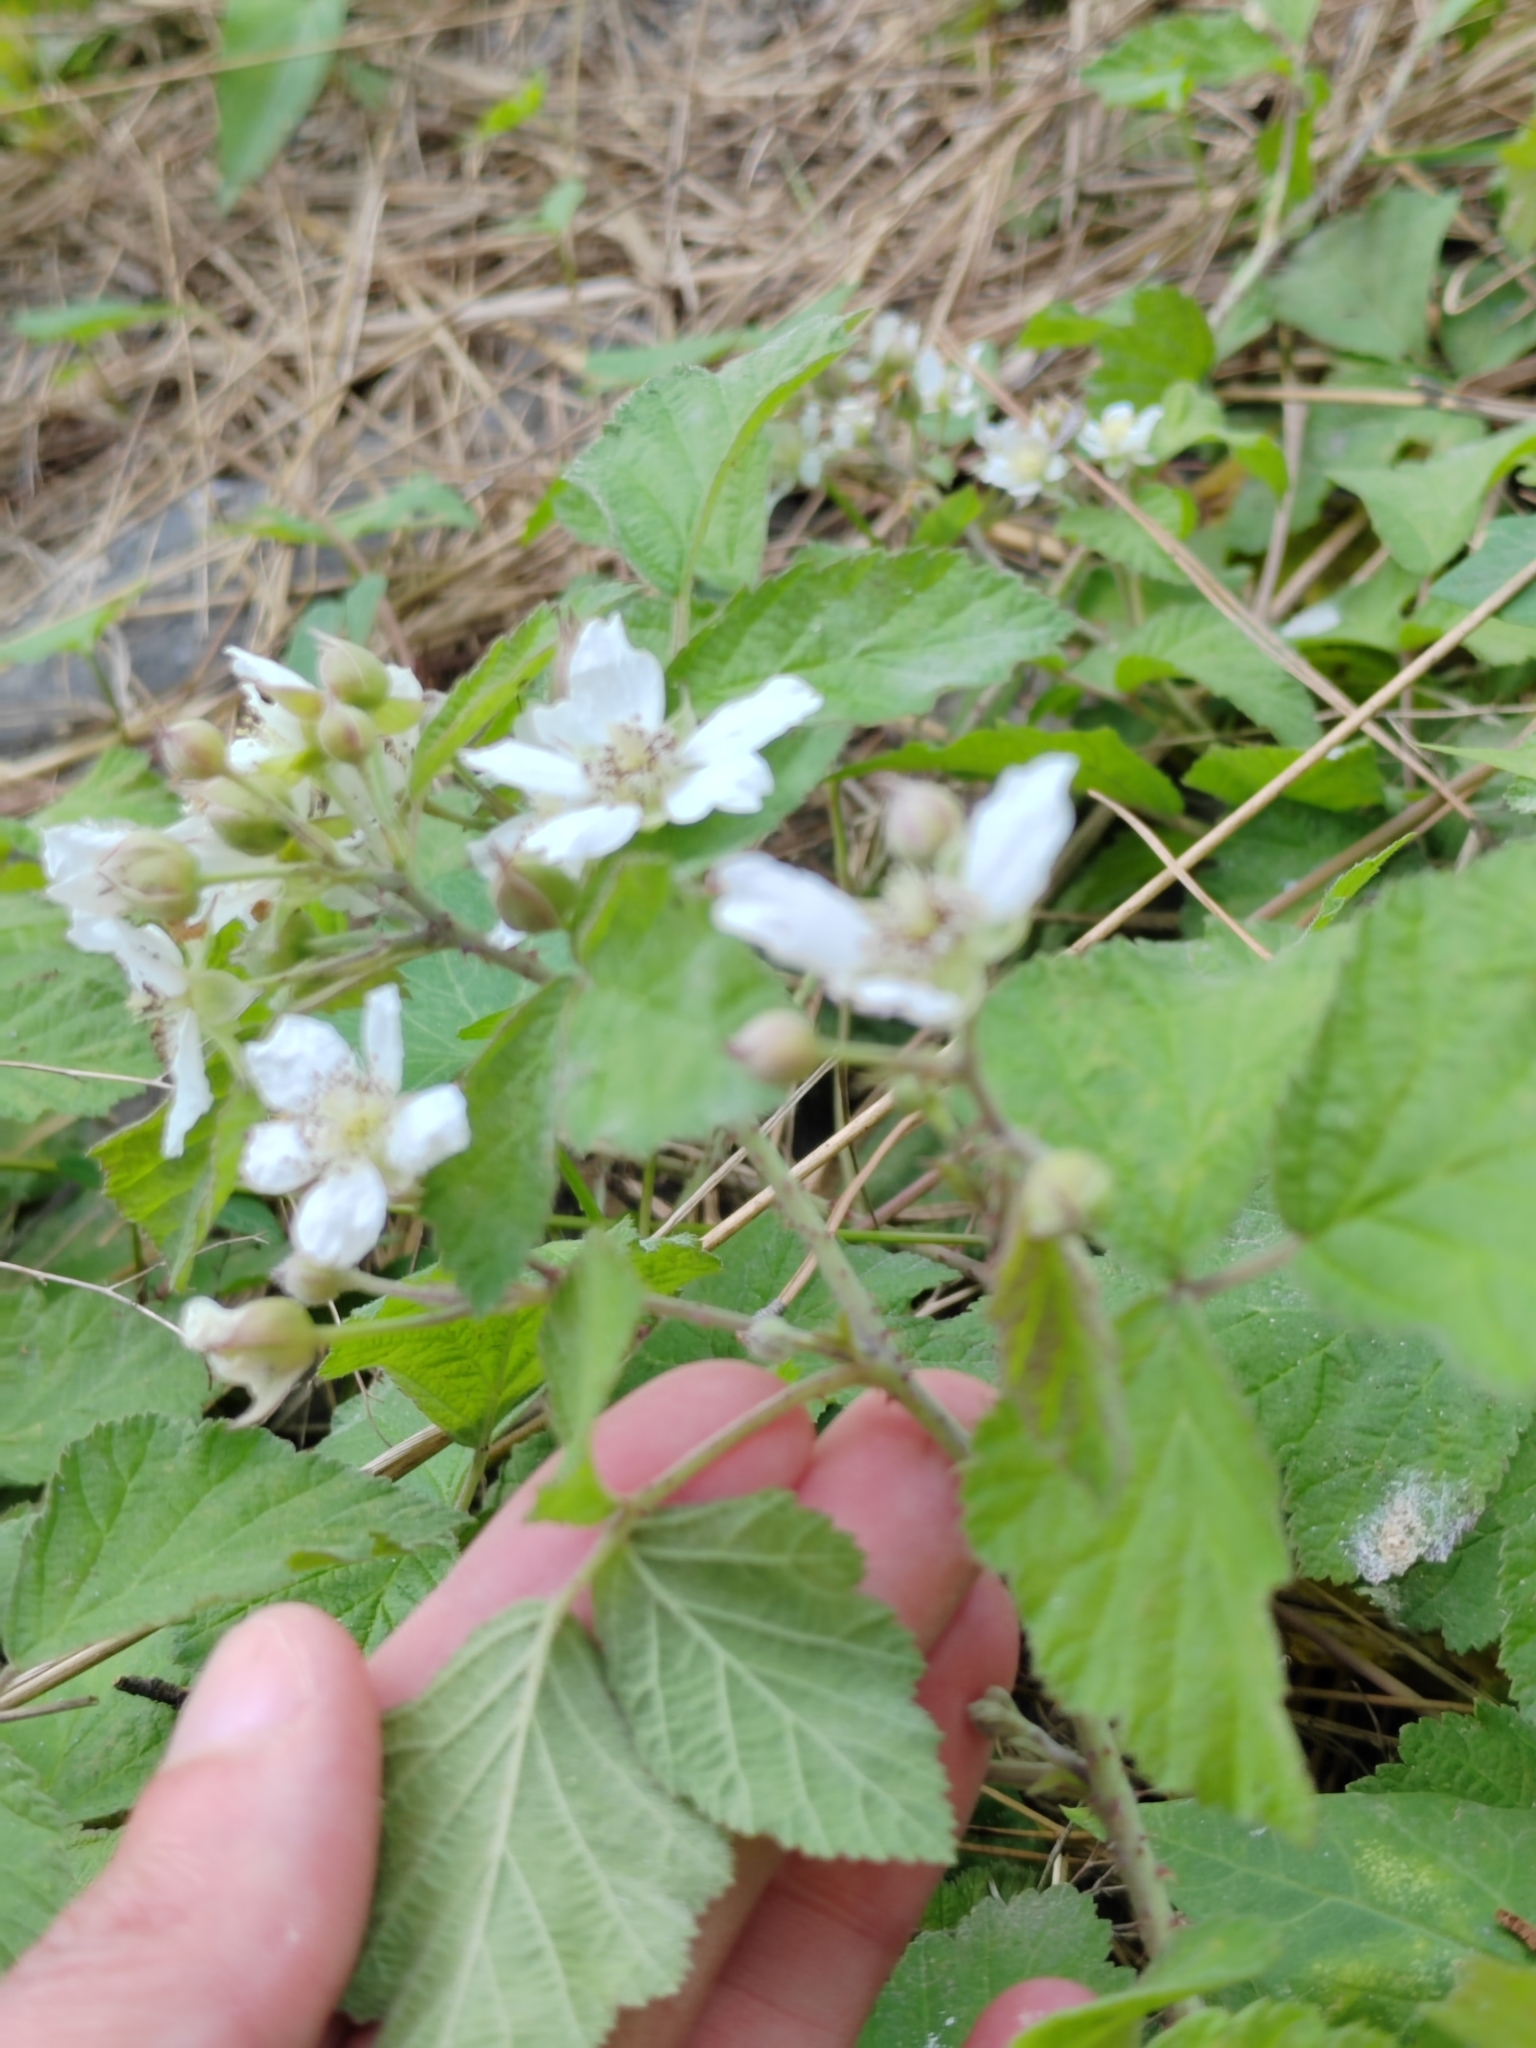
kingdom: Plantae
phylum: Tracheophyta
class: Magnoliopsida
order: Rosales
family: Rosaceae
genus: Rubus
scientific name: Rubus caesius
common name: Dewberry
